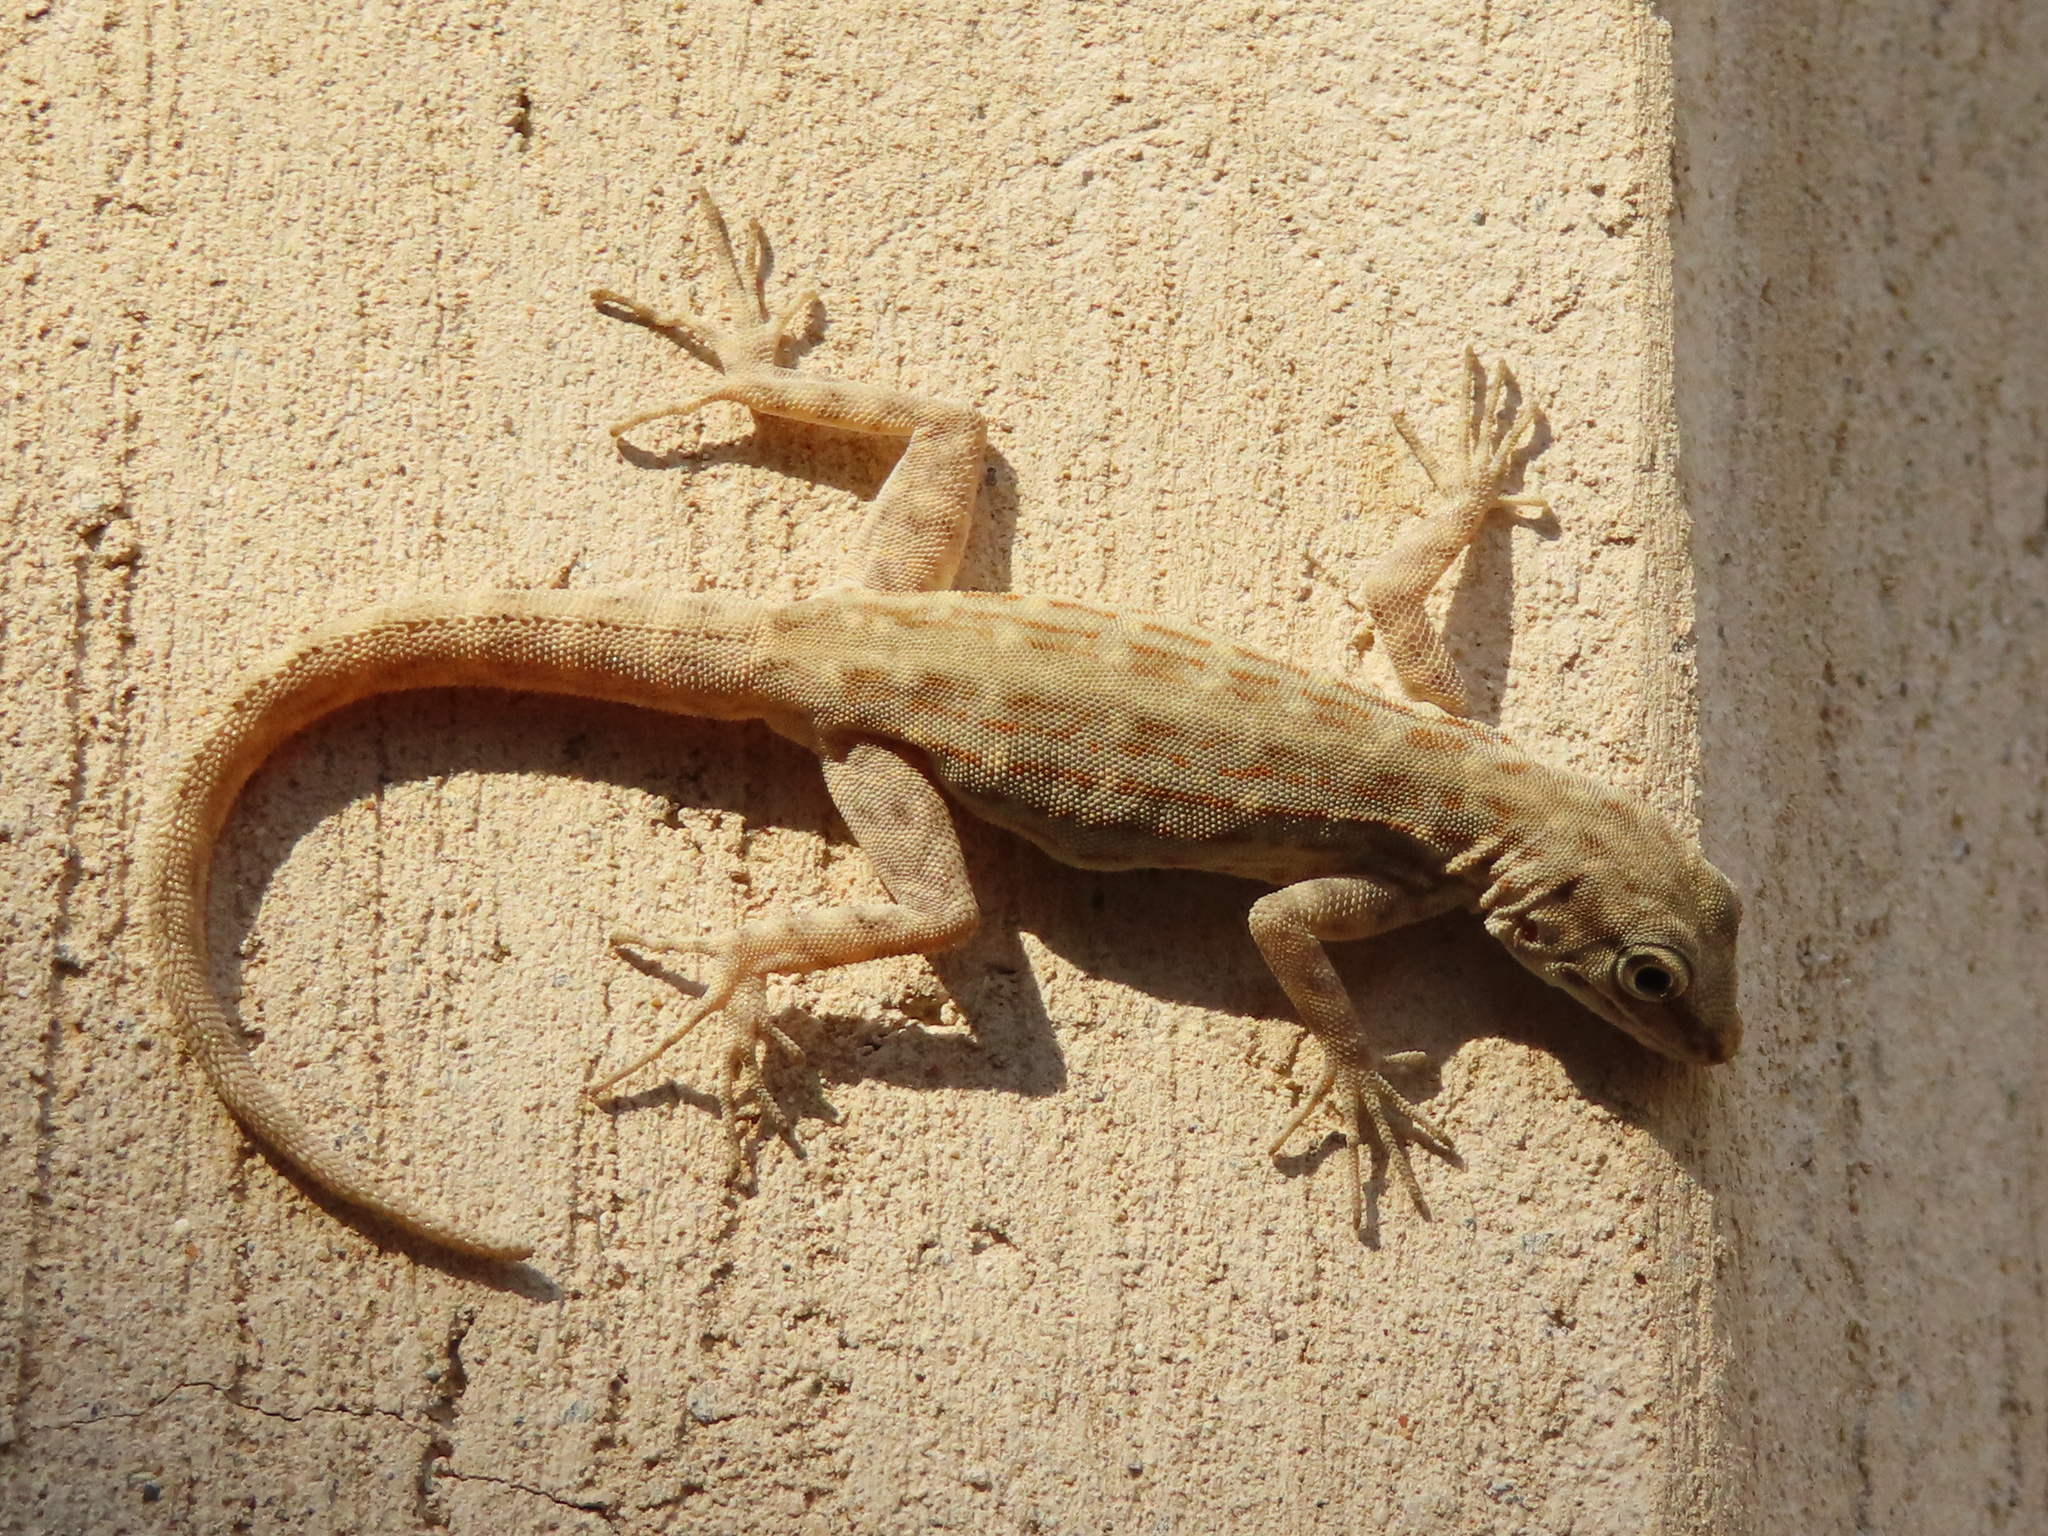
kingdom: Animalia
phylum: Chordata
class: Squamata
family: Sphaerodactylidae
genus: Pristurus
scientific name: Pristurus rupestris
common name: Blanford’s semaphore gecko
